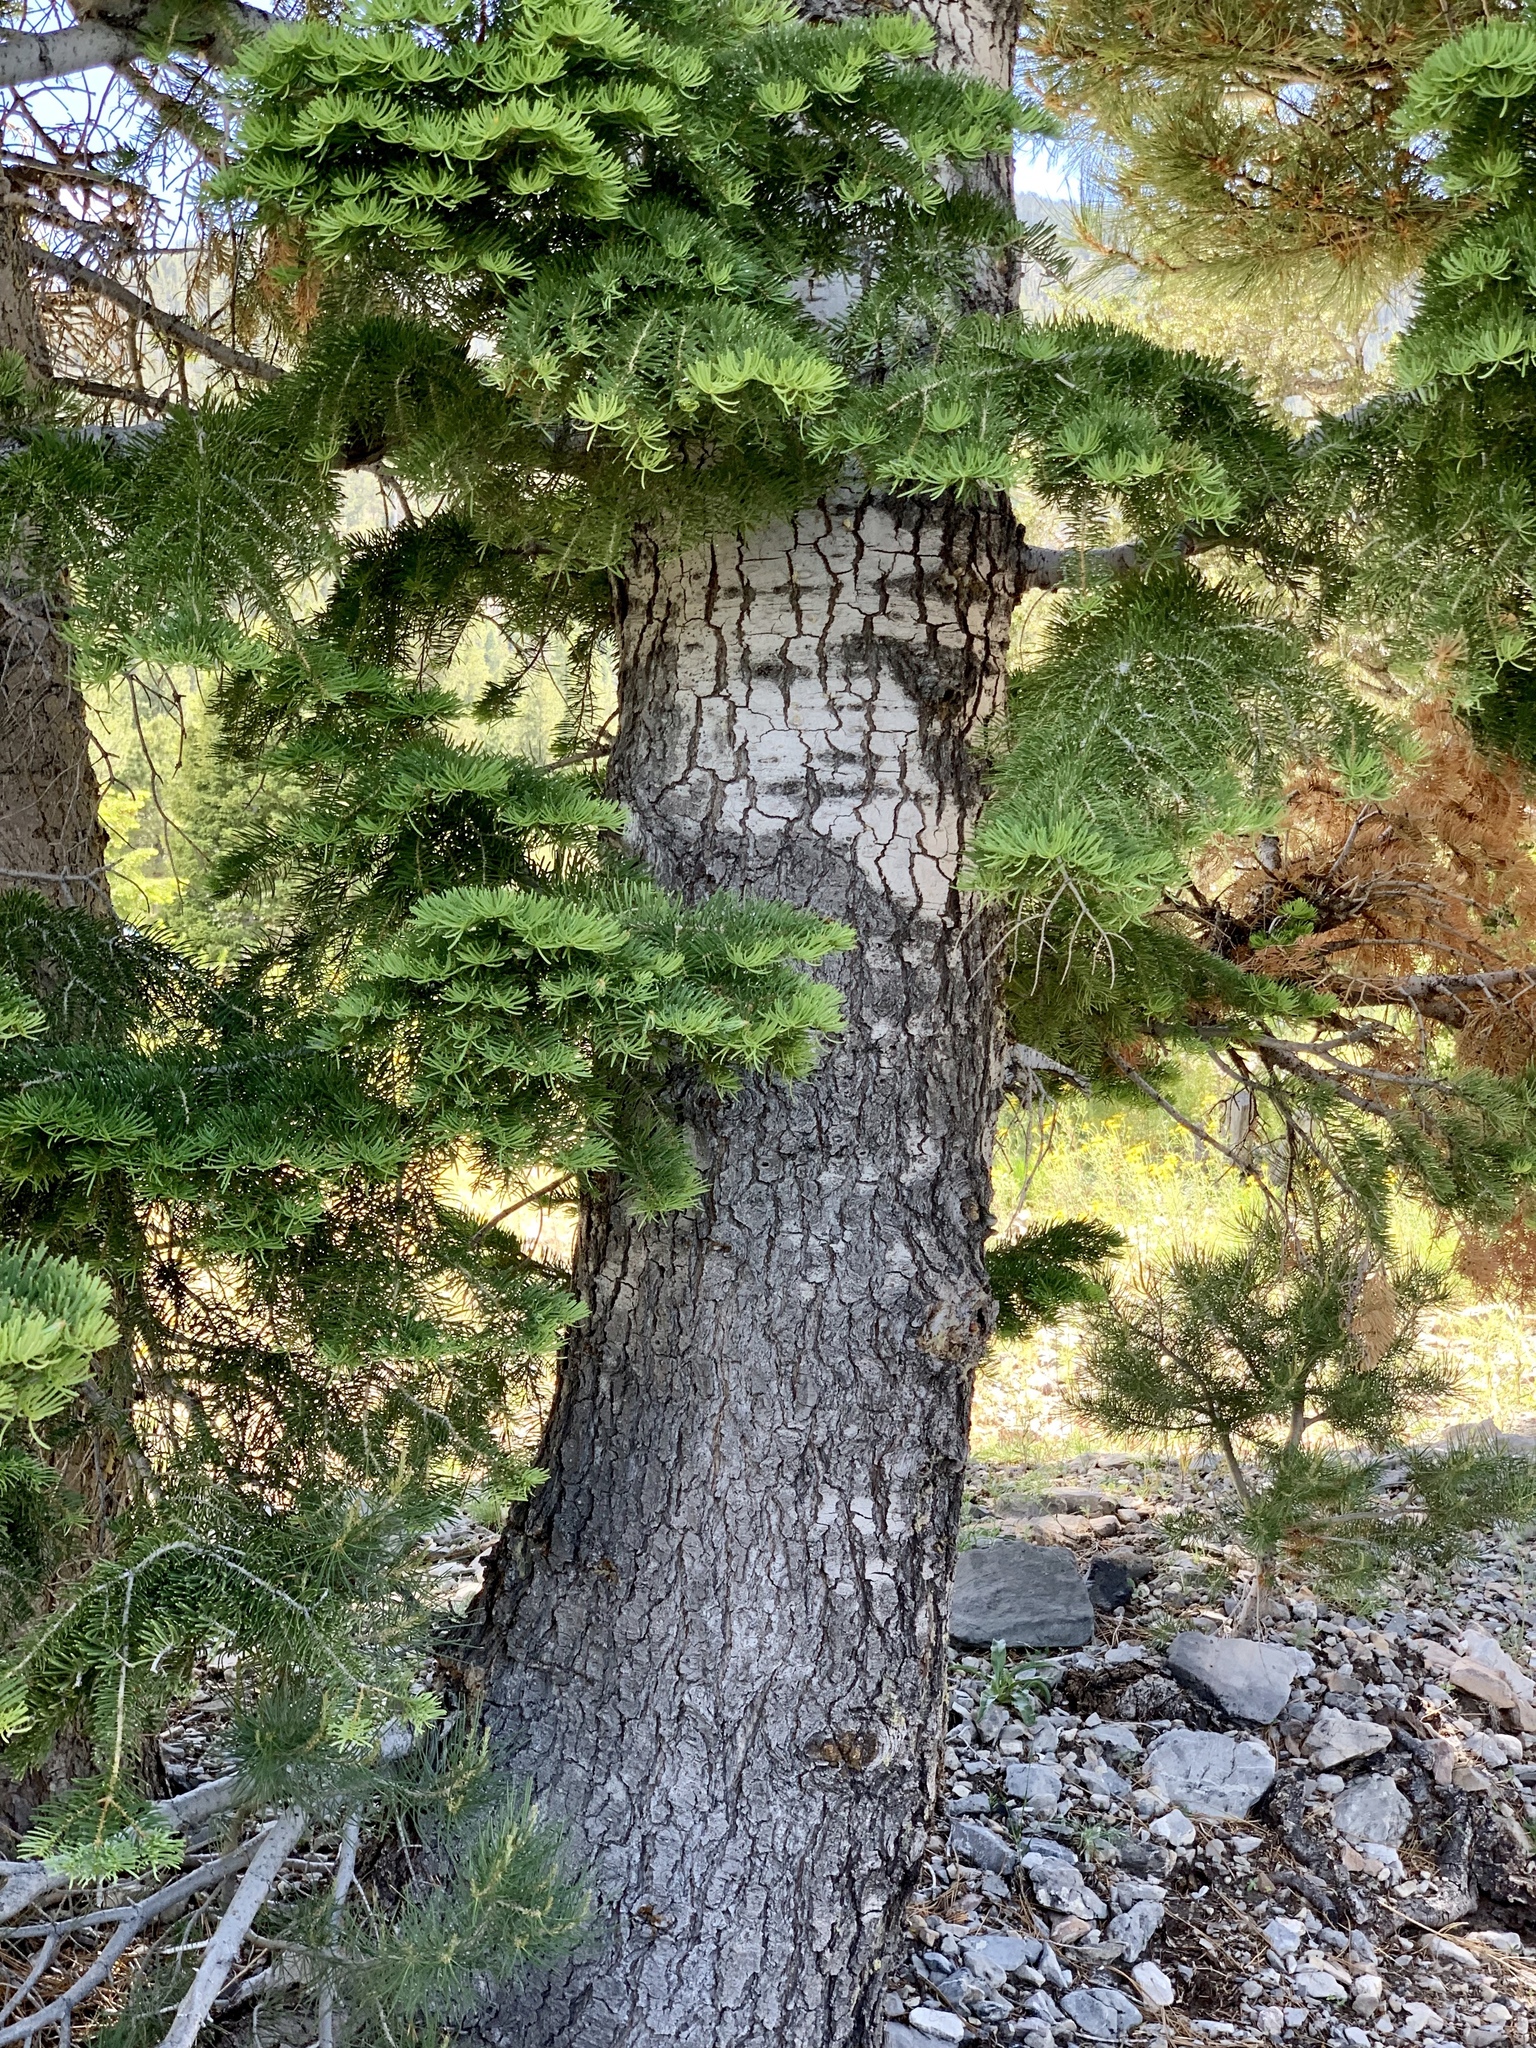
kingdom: Plantae
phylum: Tracheophyta
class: Pinopsida
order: Pinales
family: Pinaceae
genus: Abies
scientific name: Abies concolor
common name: Colorado fir
